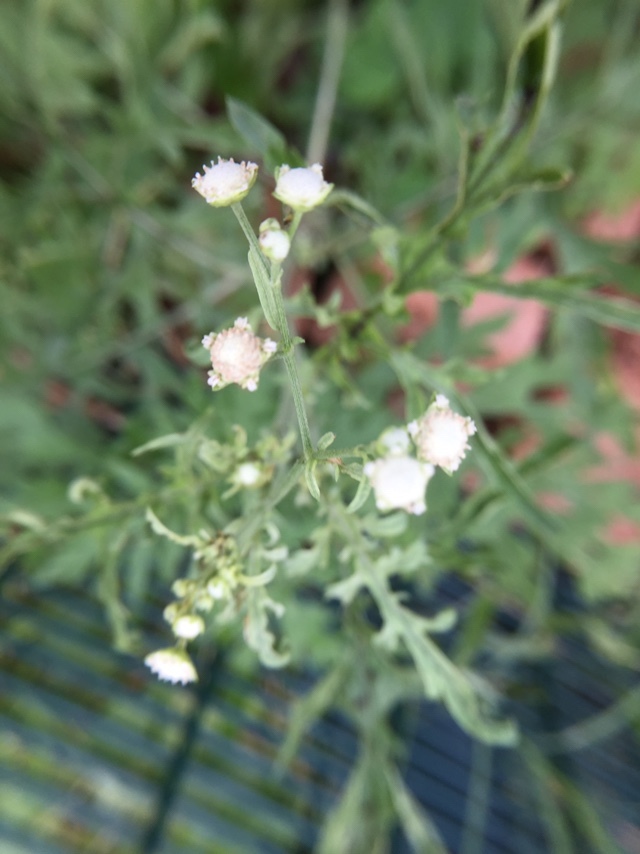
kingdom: Plantae
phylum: Tracheophyta
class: Magnoliopsida
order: Asterales
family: Asteraceae
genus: Parthenium
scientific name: Parthenium hysterophorus
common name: Santa maria feverfew
